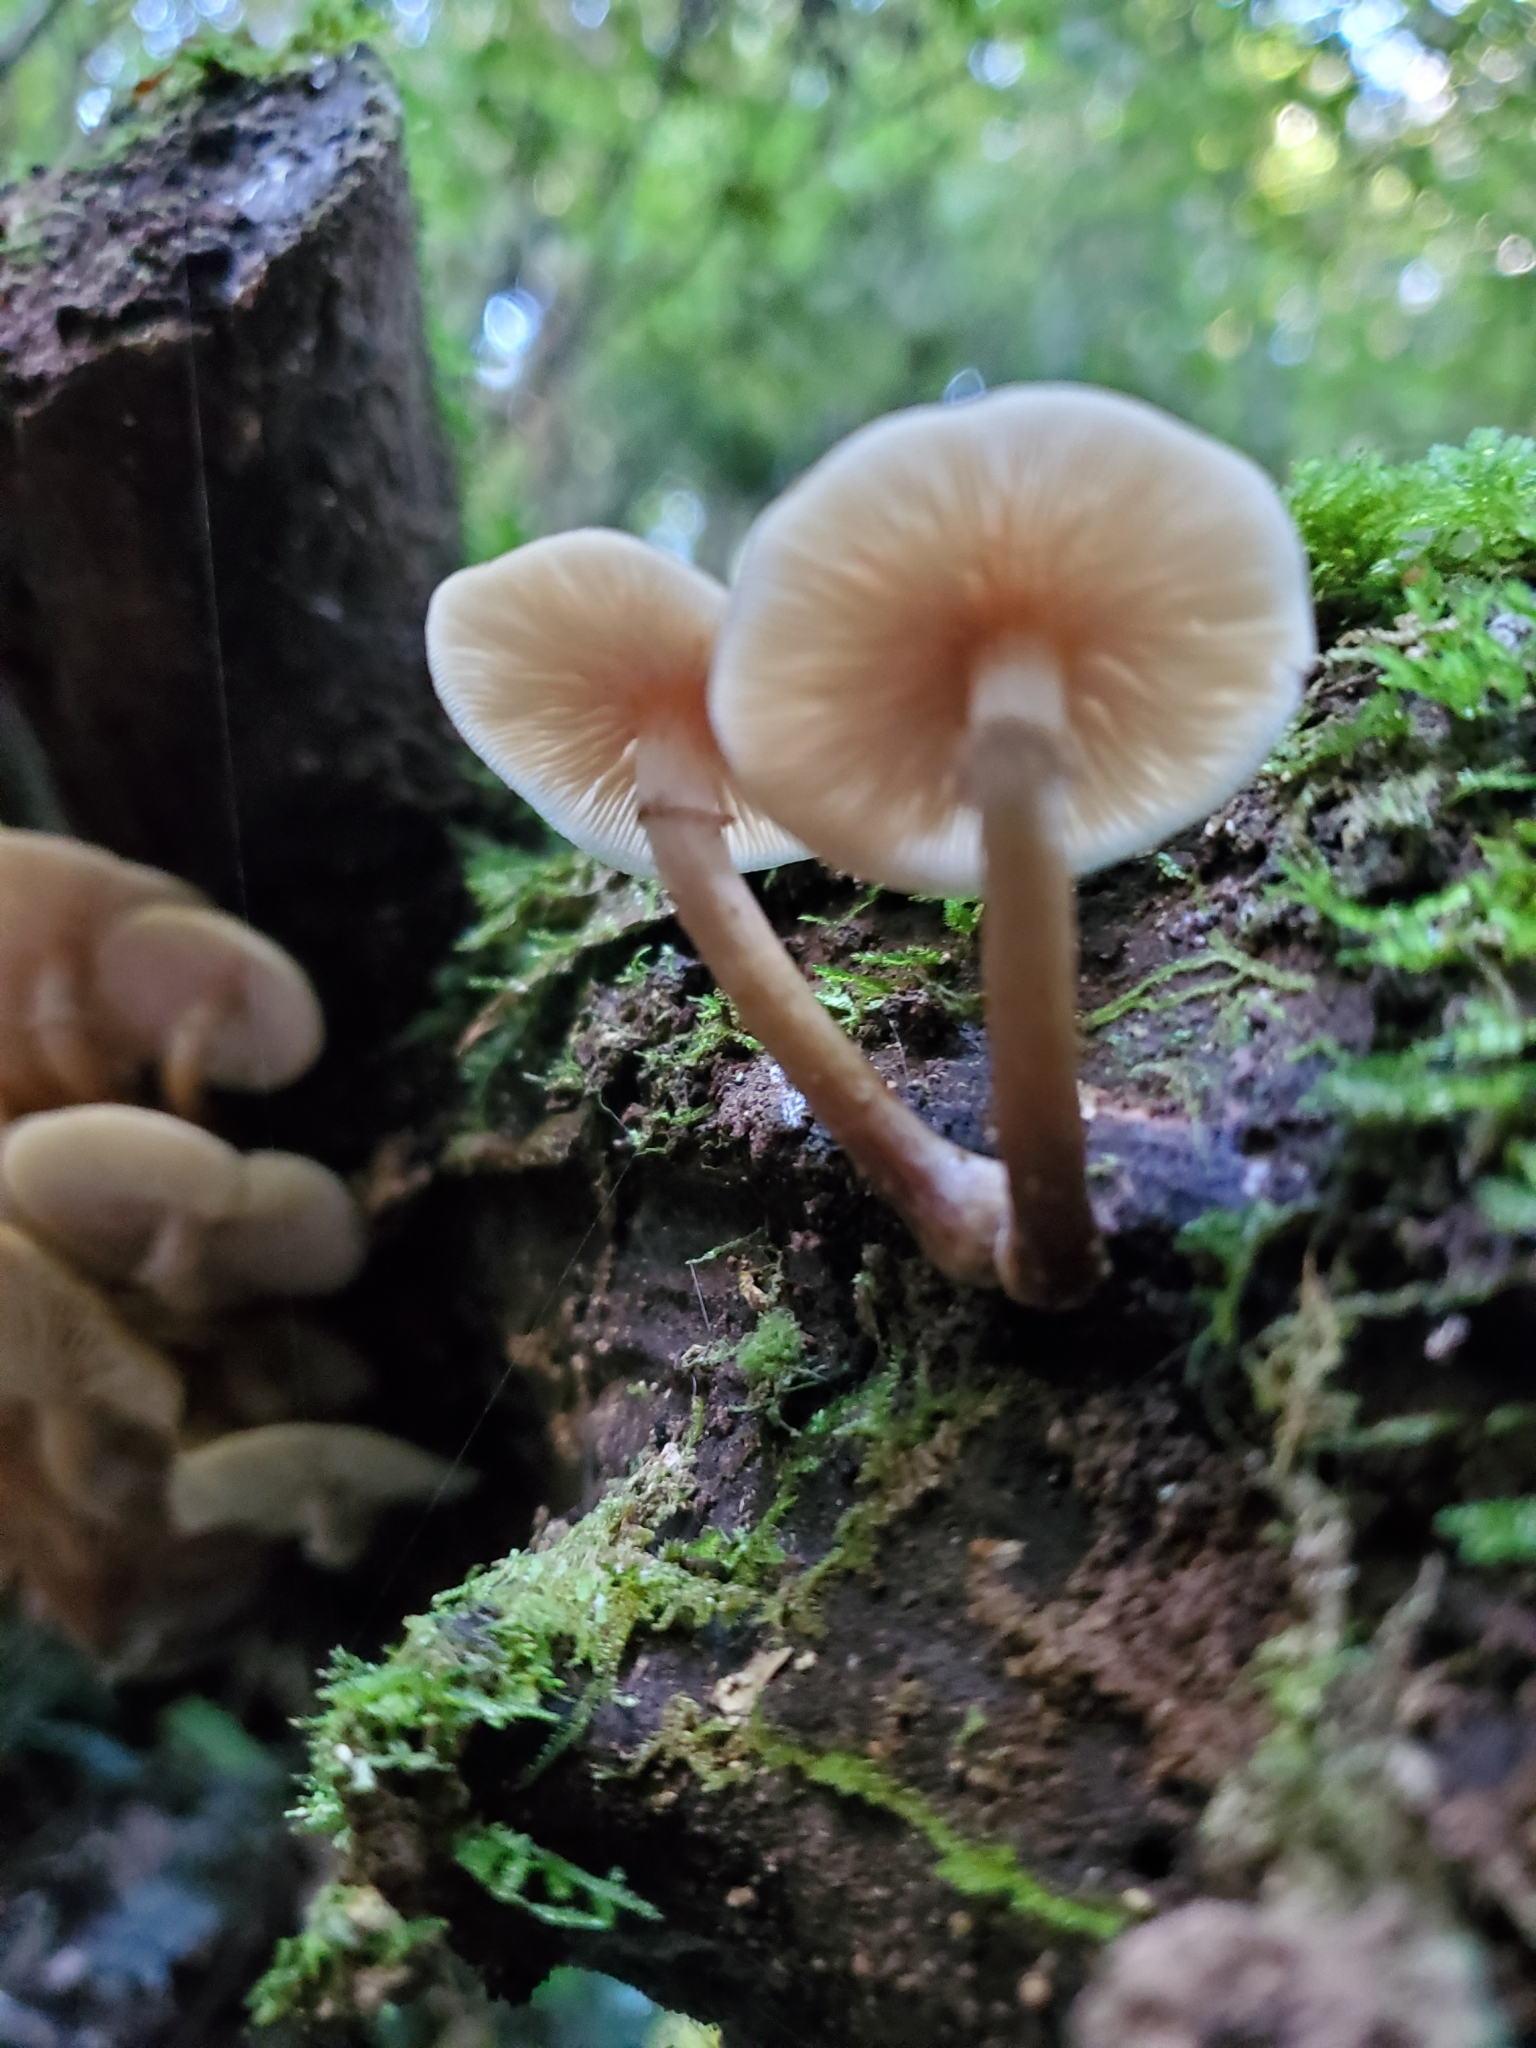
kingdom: Fungi
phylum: Basidiomycota
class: Agaricomycetes
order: Agaricales
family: Physalacriaceae
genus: Armillaria
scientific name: Armillaria novae-zelandiae
